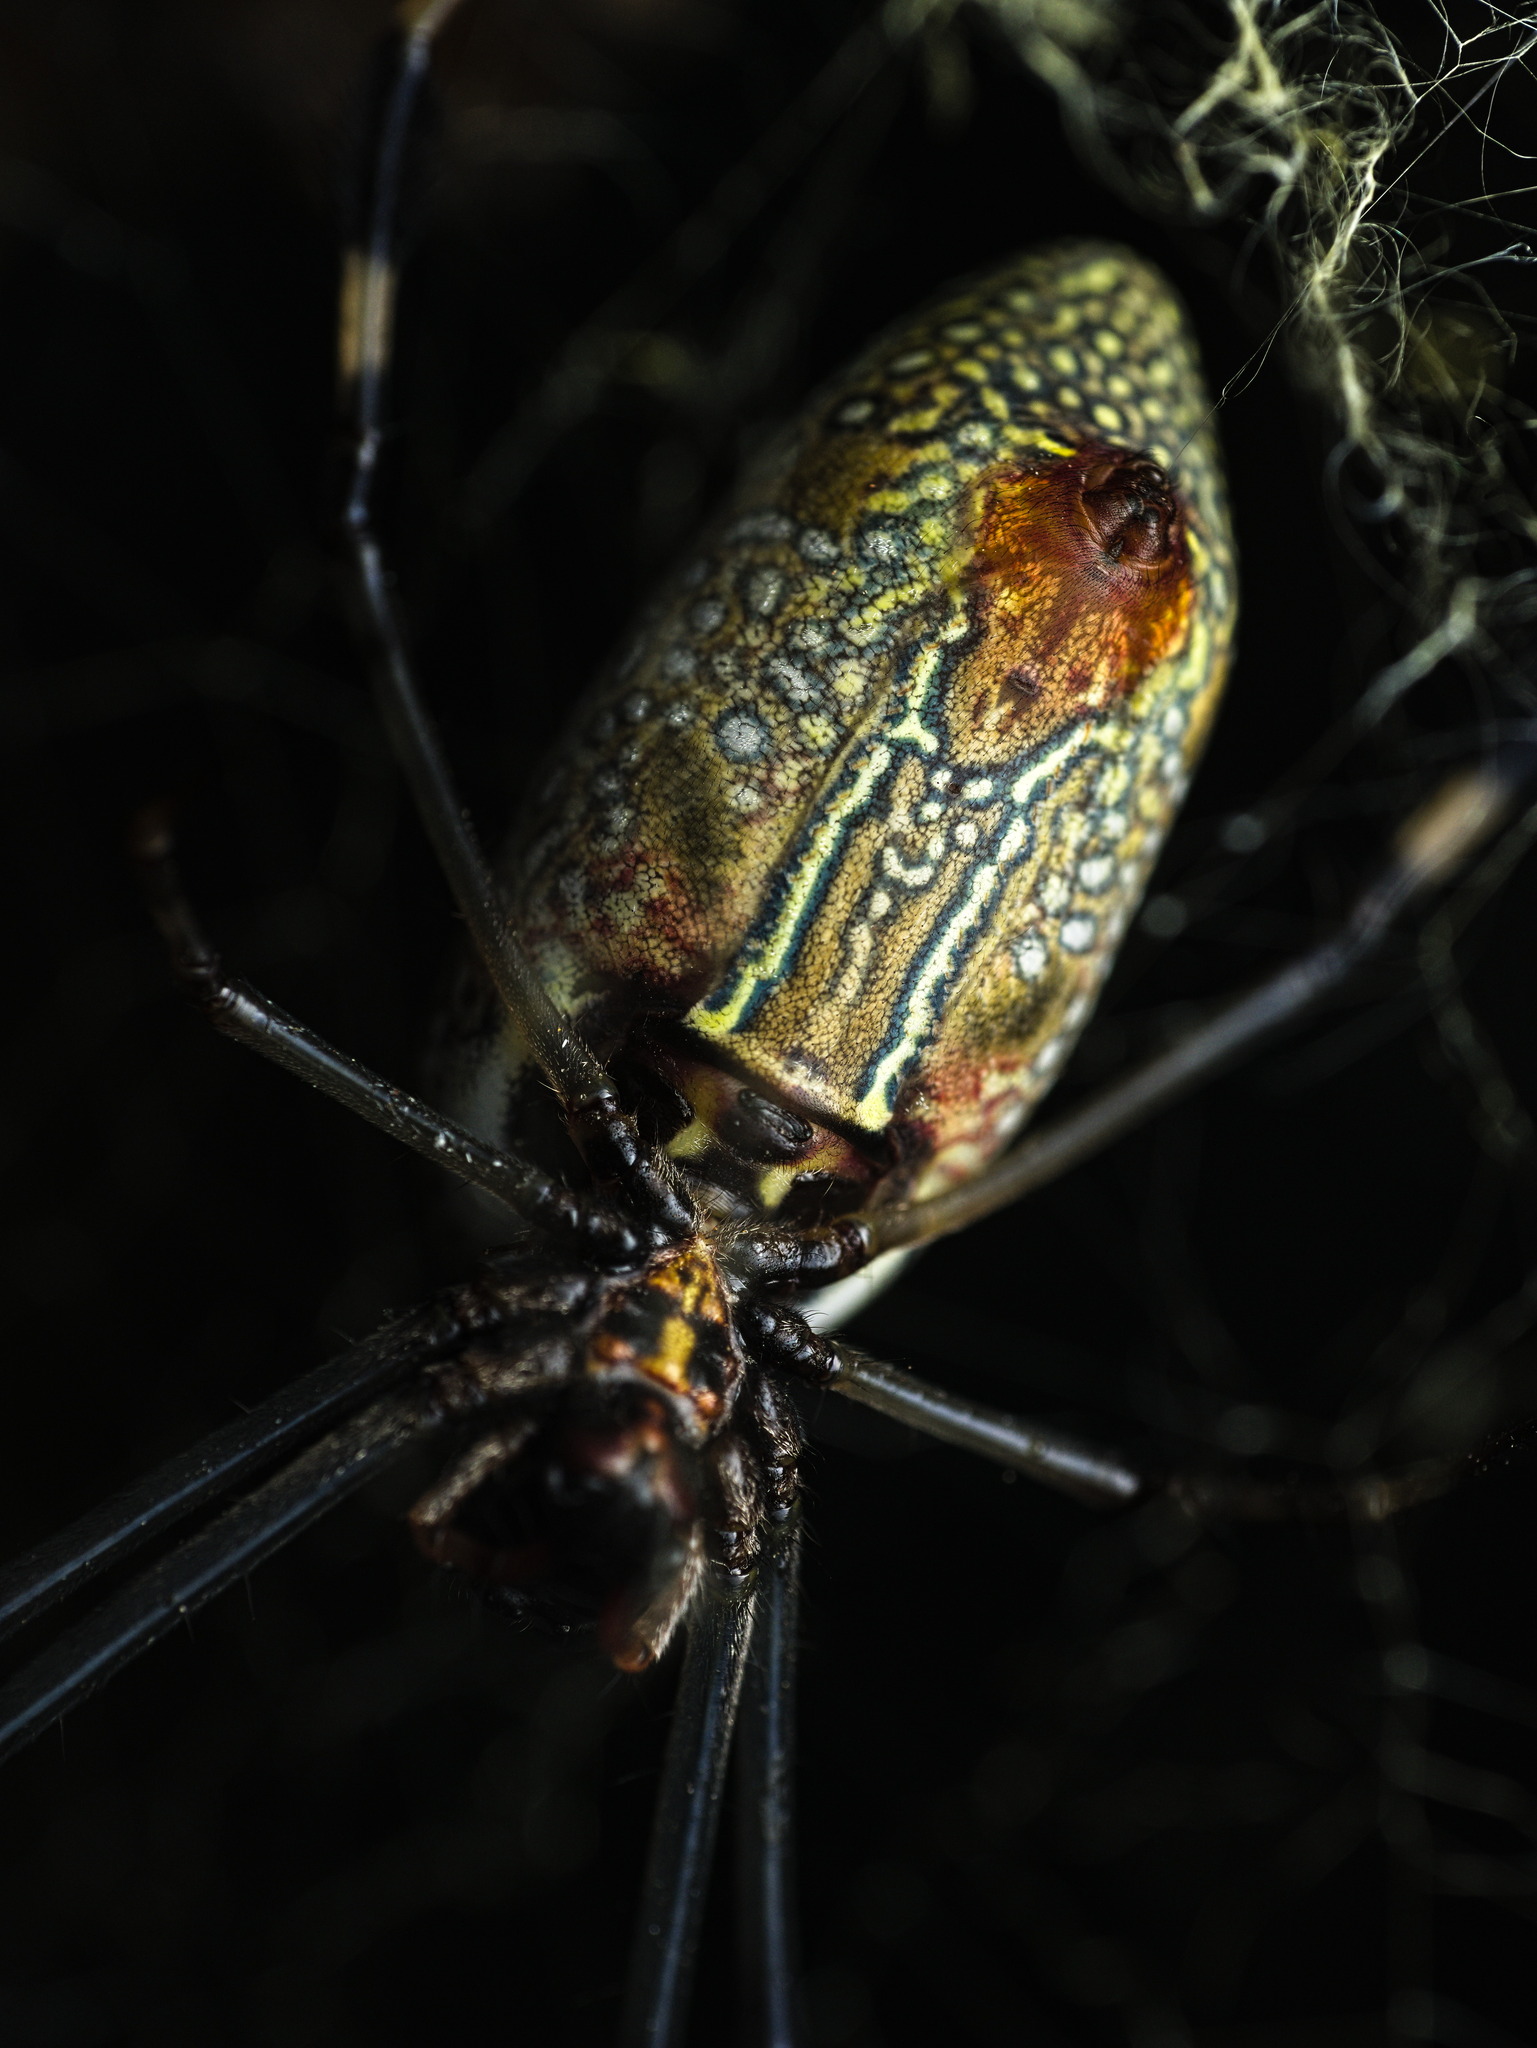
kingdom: Animalia
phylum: Arthropoda
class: Arachnida
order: Araneae
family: Araneidae
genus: Trichonephila
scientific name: Trichonephila clavipes
